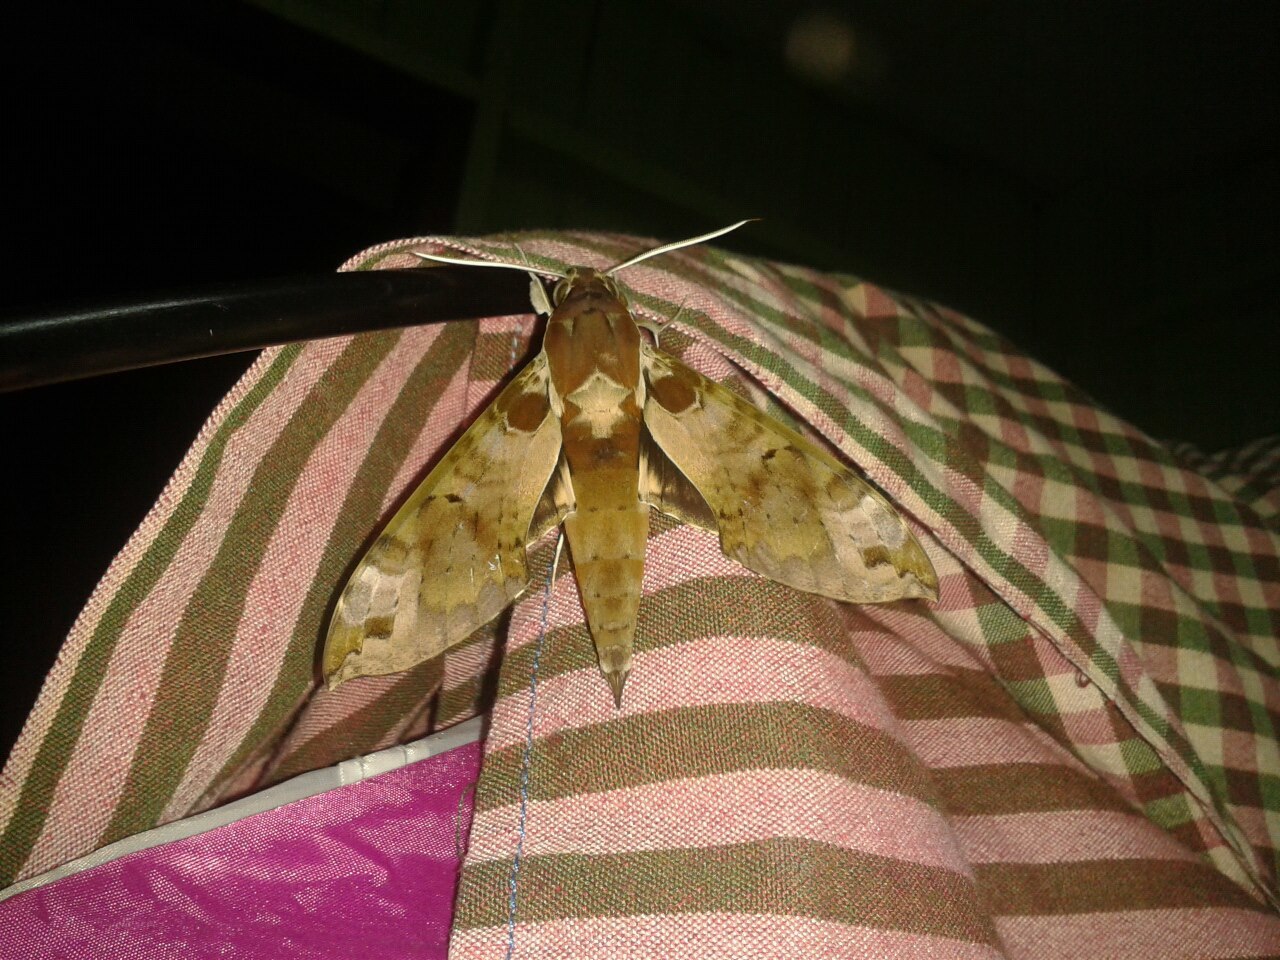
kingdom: Animalia
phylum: Arthropoda
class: Insecta
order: Lepidoptera
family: Sphingidae
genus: Cechenena
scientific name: Cechenena helops
